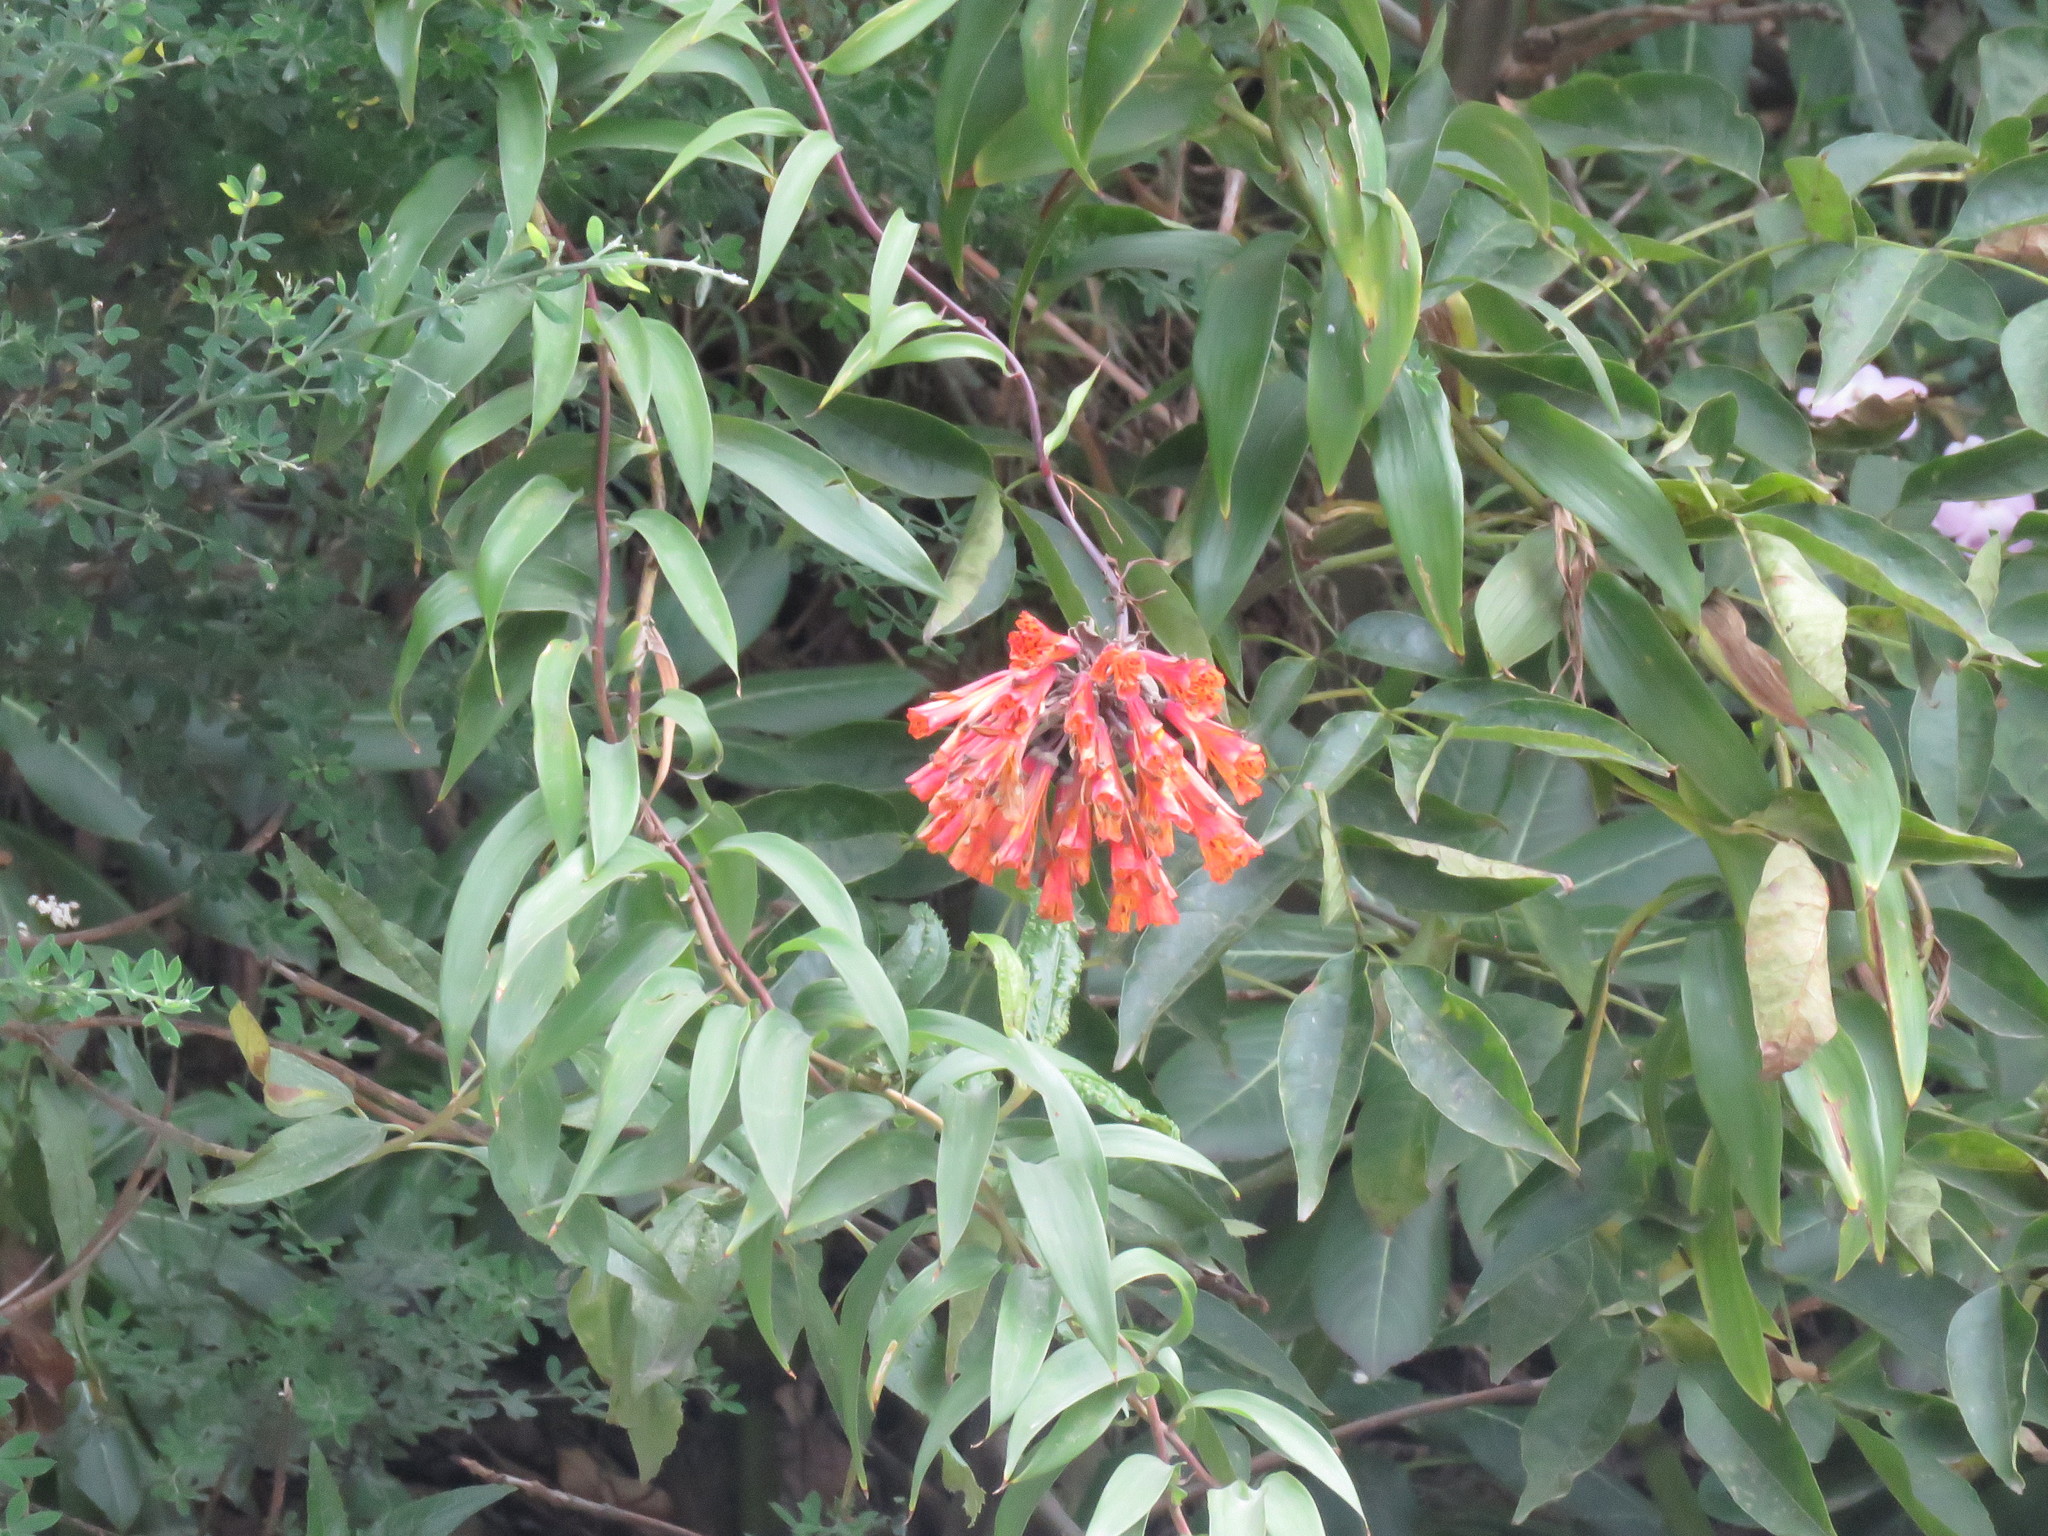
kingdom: Plantae
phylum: Tracheophyta
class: Liliopsida
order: Liliales
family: Alstroemeriaceae
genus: Bomarea
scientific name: Bomarea multiflora
